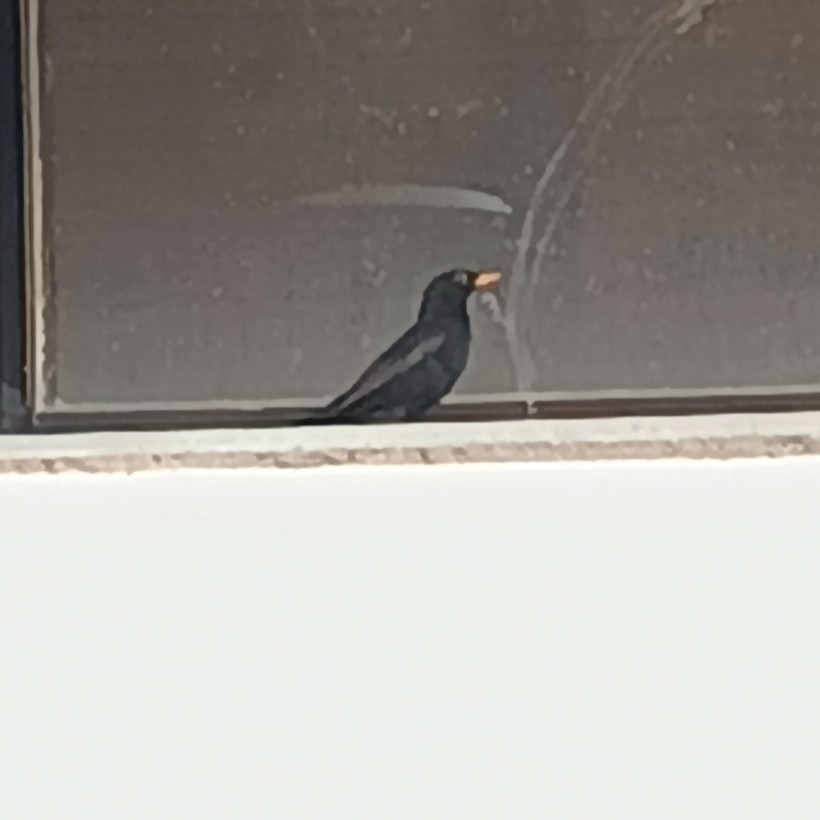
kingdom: Animalia
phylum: Chordata
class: Aves
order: Passeriformes
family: Turdidae
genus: Turdus
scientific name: Turdus merula
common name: Common blackbird
